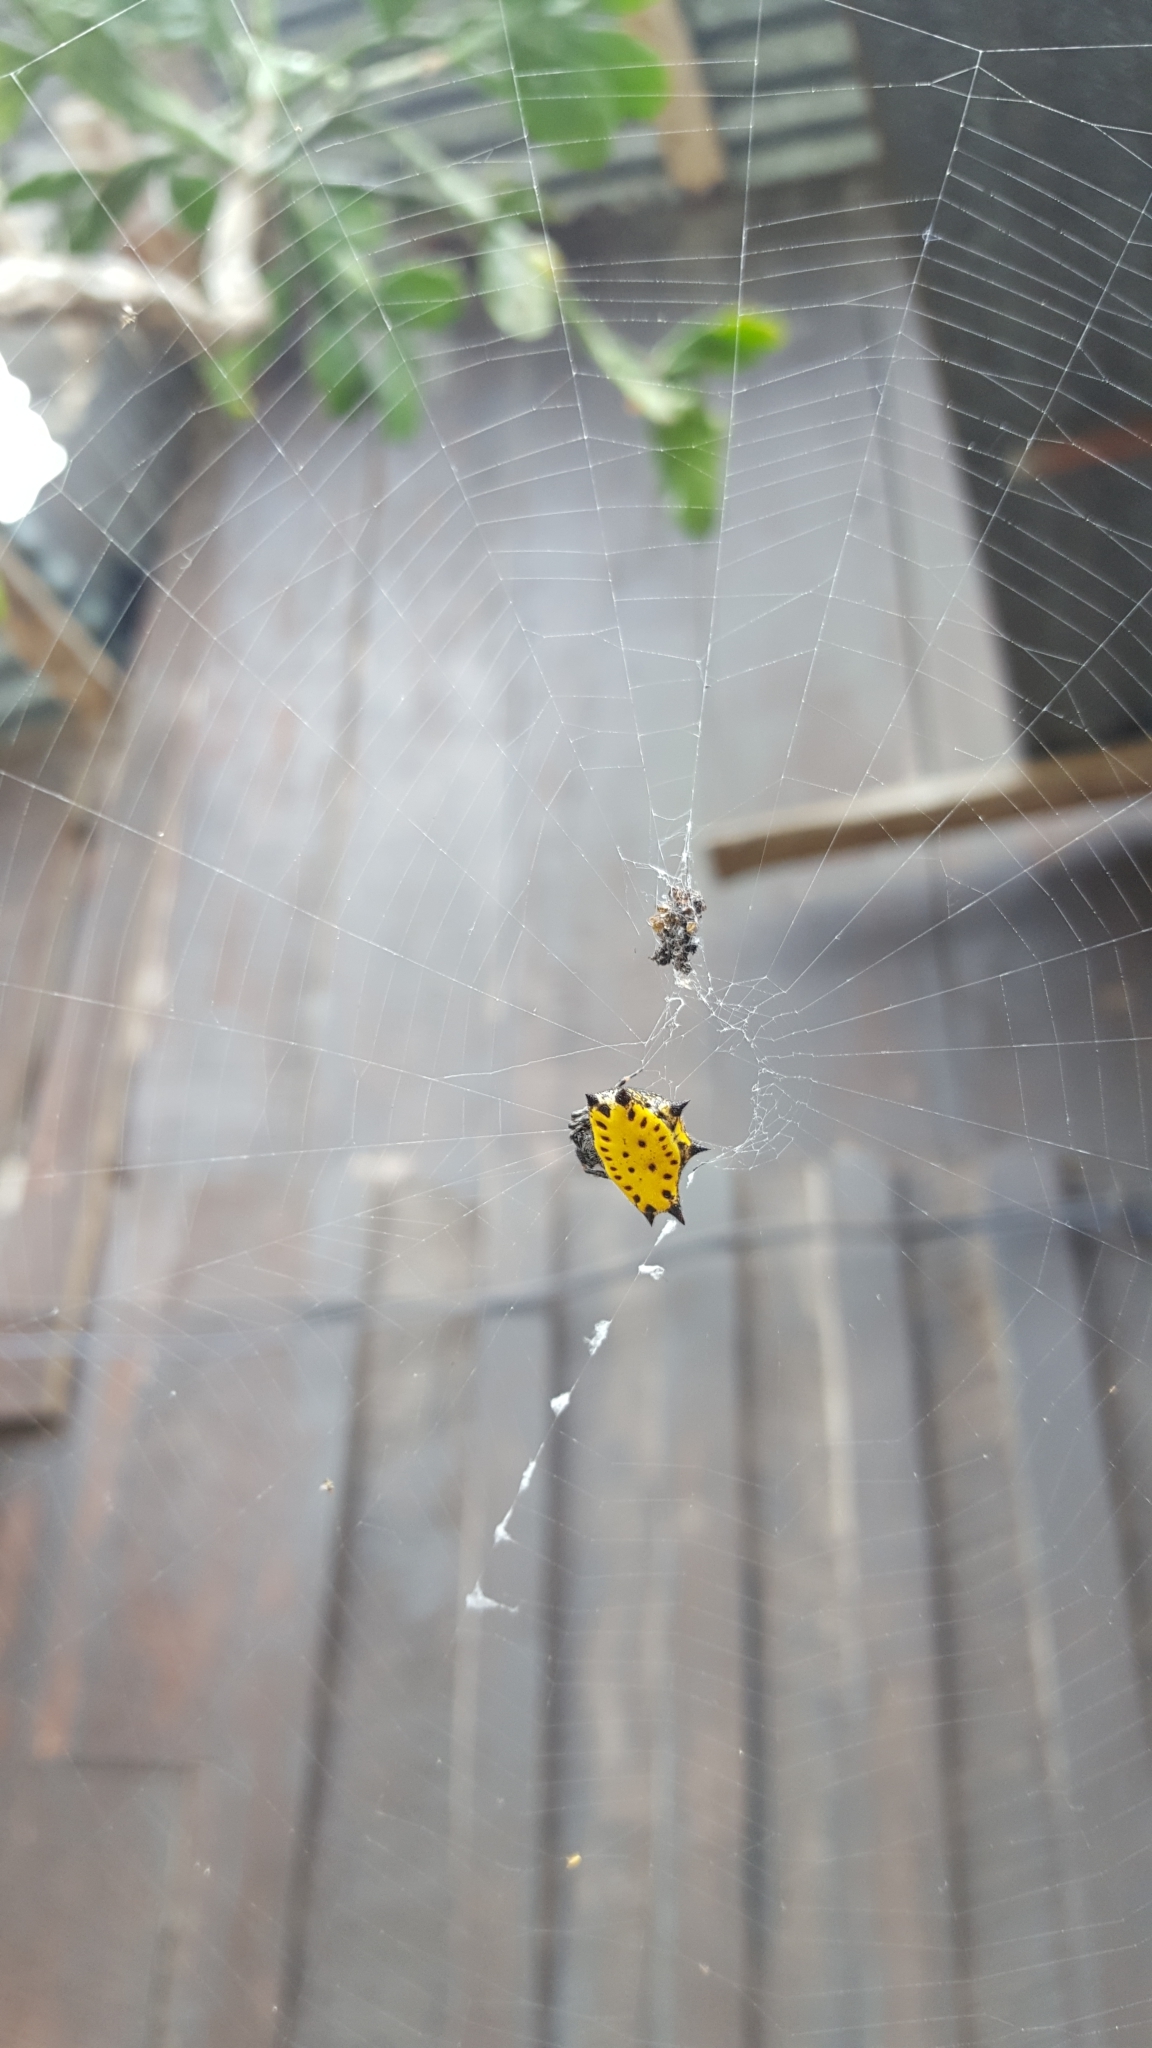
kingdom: Animalia
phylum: Arthropoda
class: Arachnida
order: Araneae
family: Araneidae
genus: Gasteracantha
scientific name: Gasteracantha cancriformis
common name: Orb weavers
